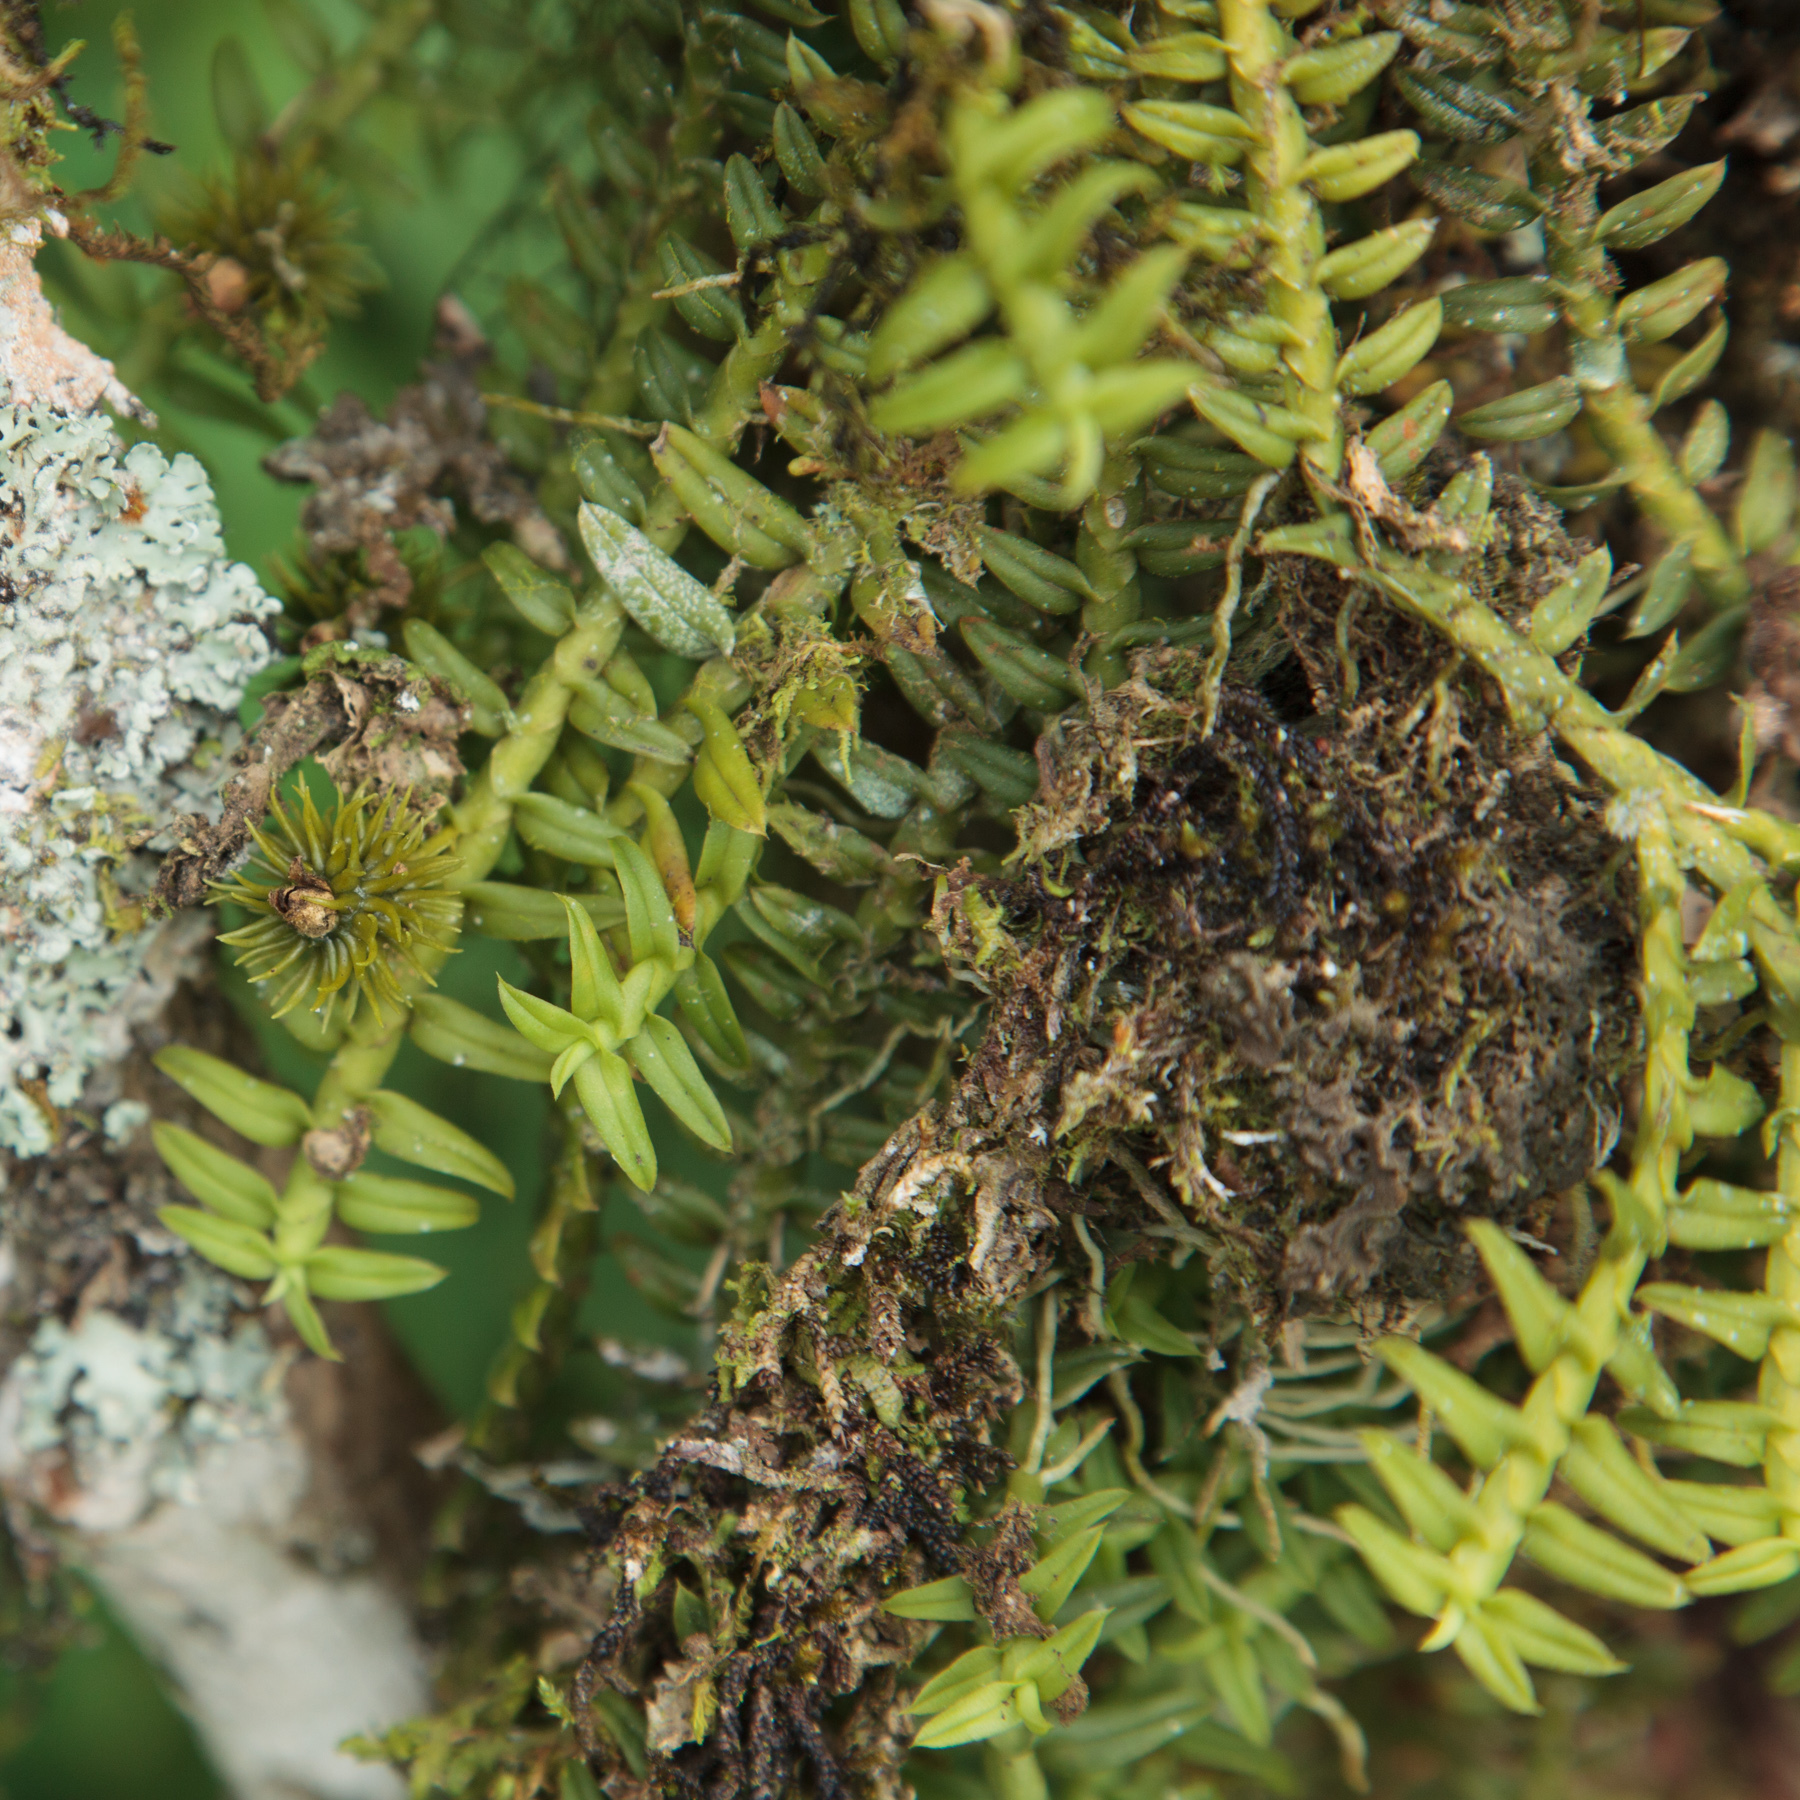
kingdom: Plantae
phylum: Tracheophyta
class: Liliopsida
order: Asparagales
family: Orchidaceae
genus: Dichaea
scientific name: Dichaea trichocarpa
